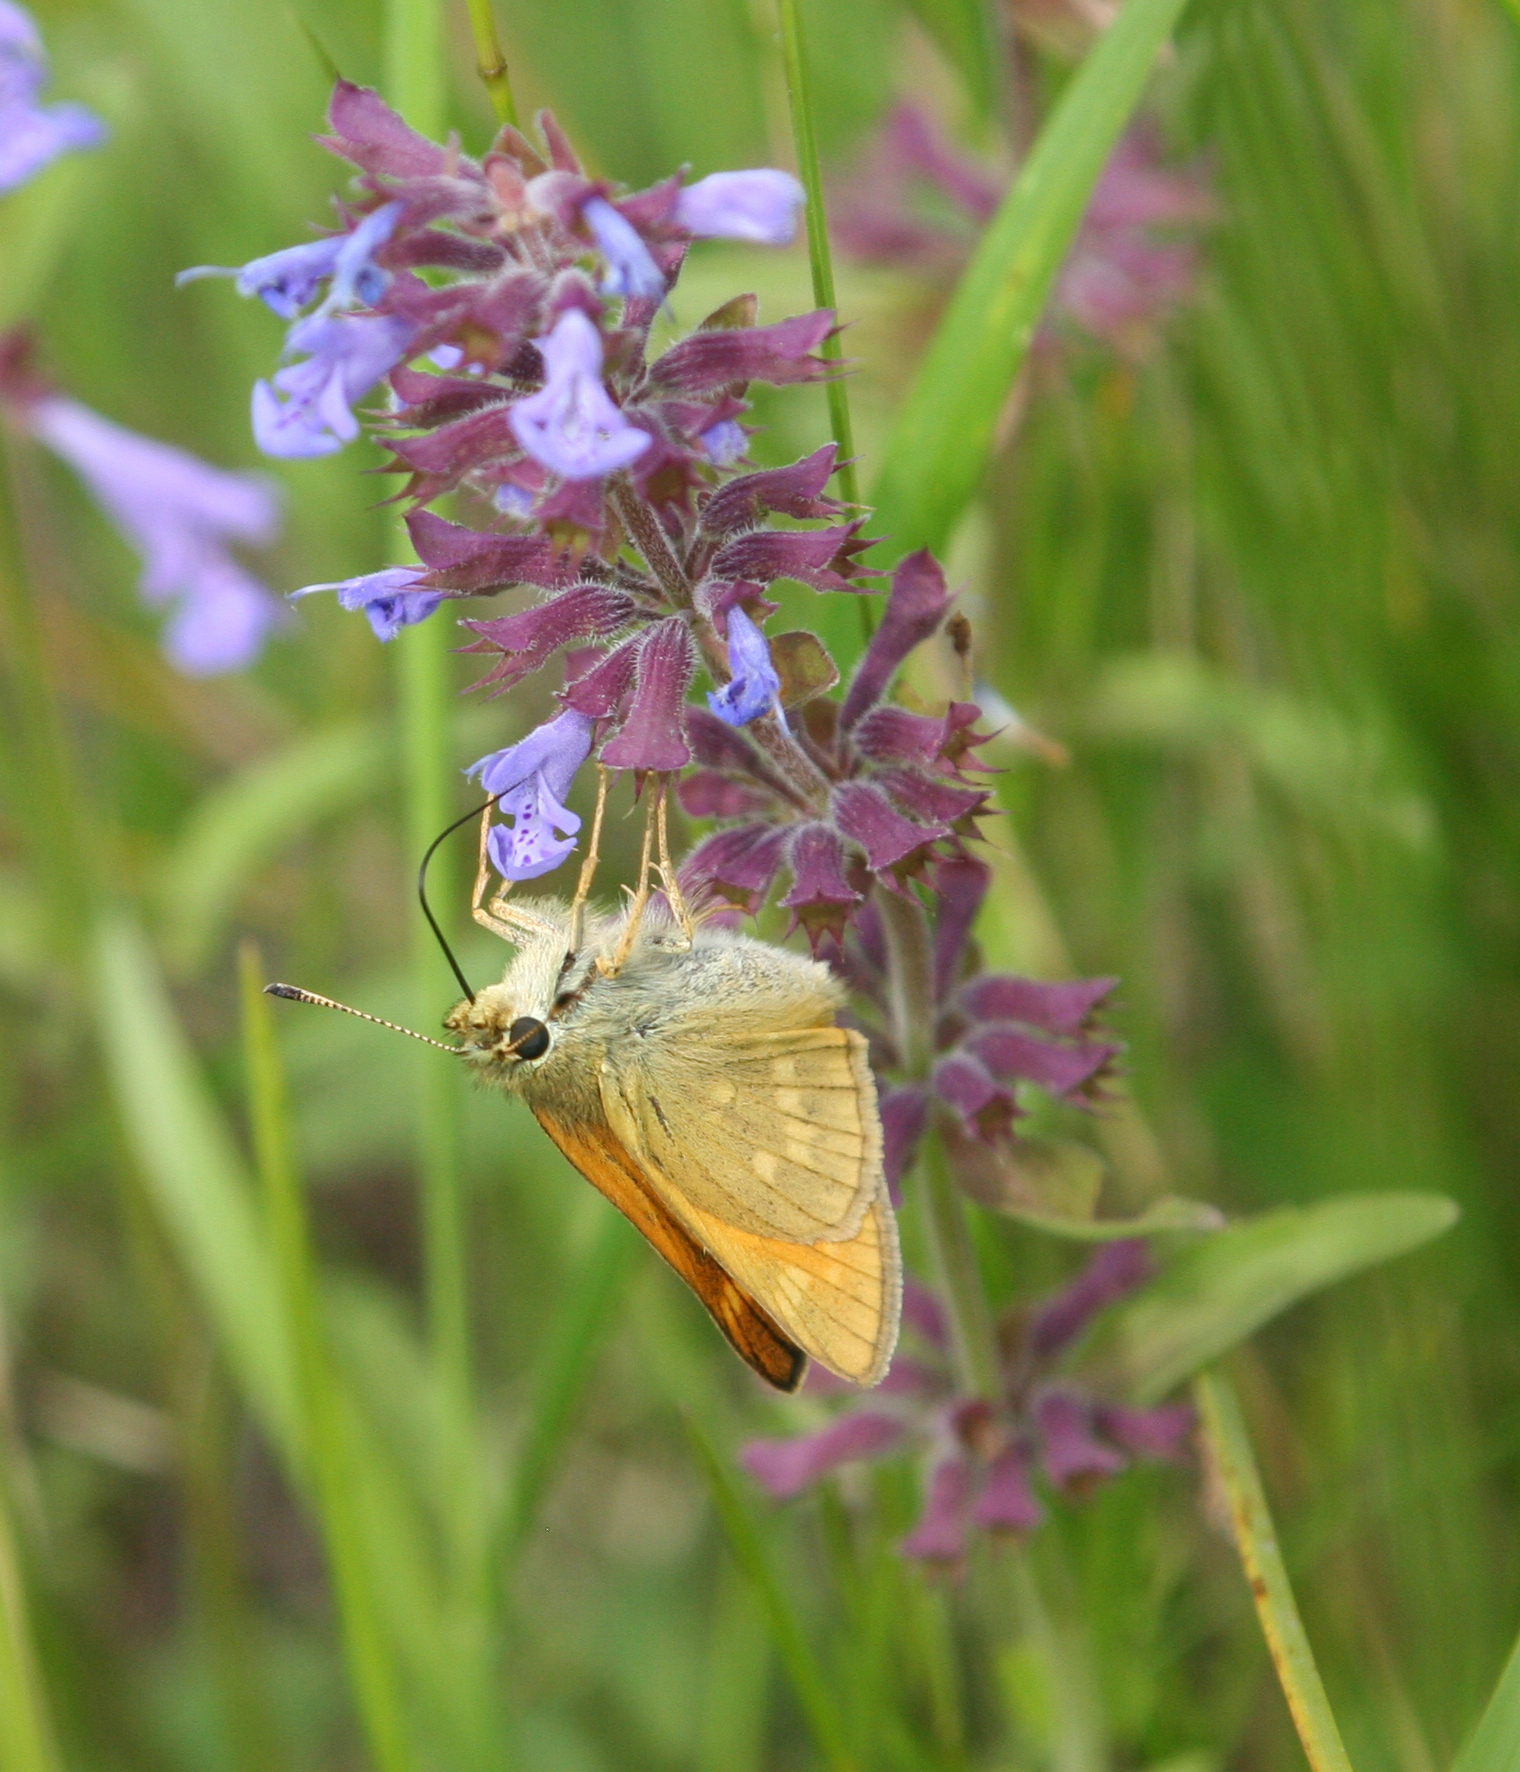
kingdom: Animalia
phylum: Arthropoda
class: Insecta
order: Lepidoptera
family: Hesperiidae
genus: Ochlodes
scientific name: Ochlodes venata
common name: Large skipper
